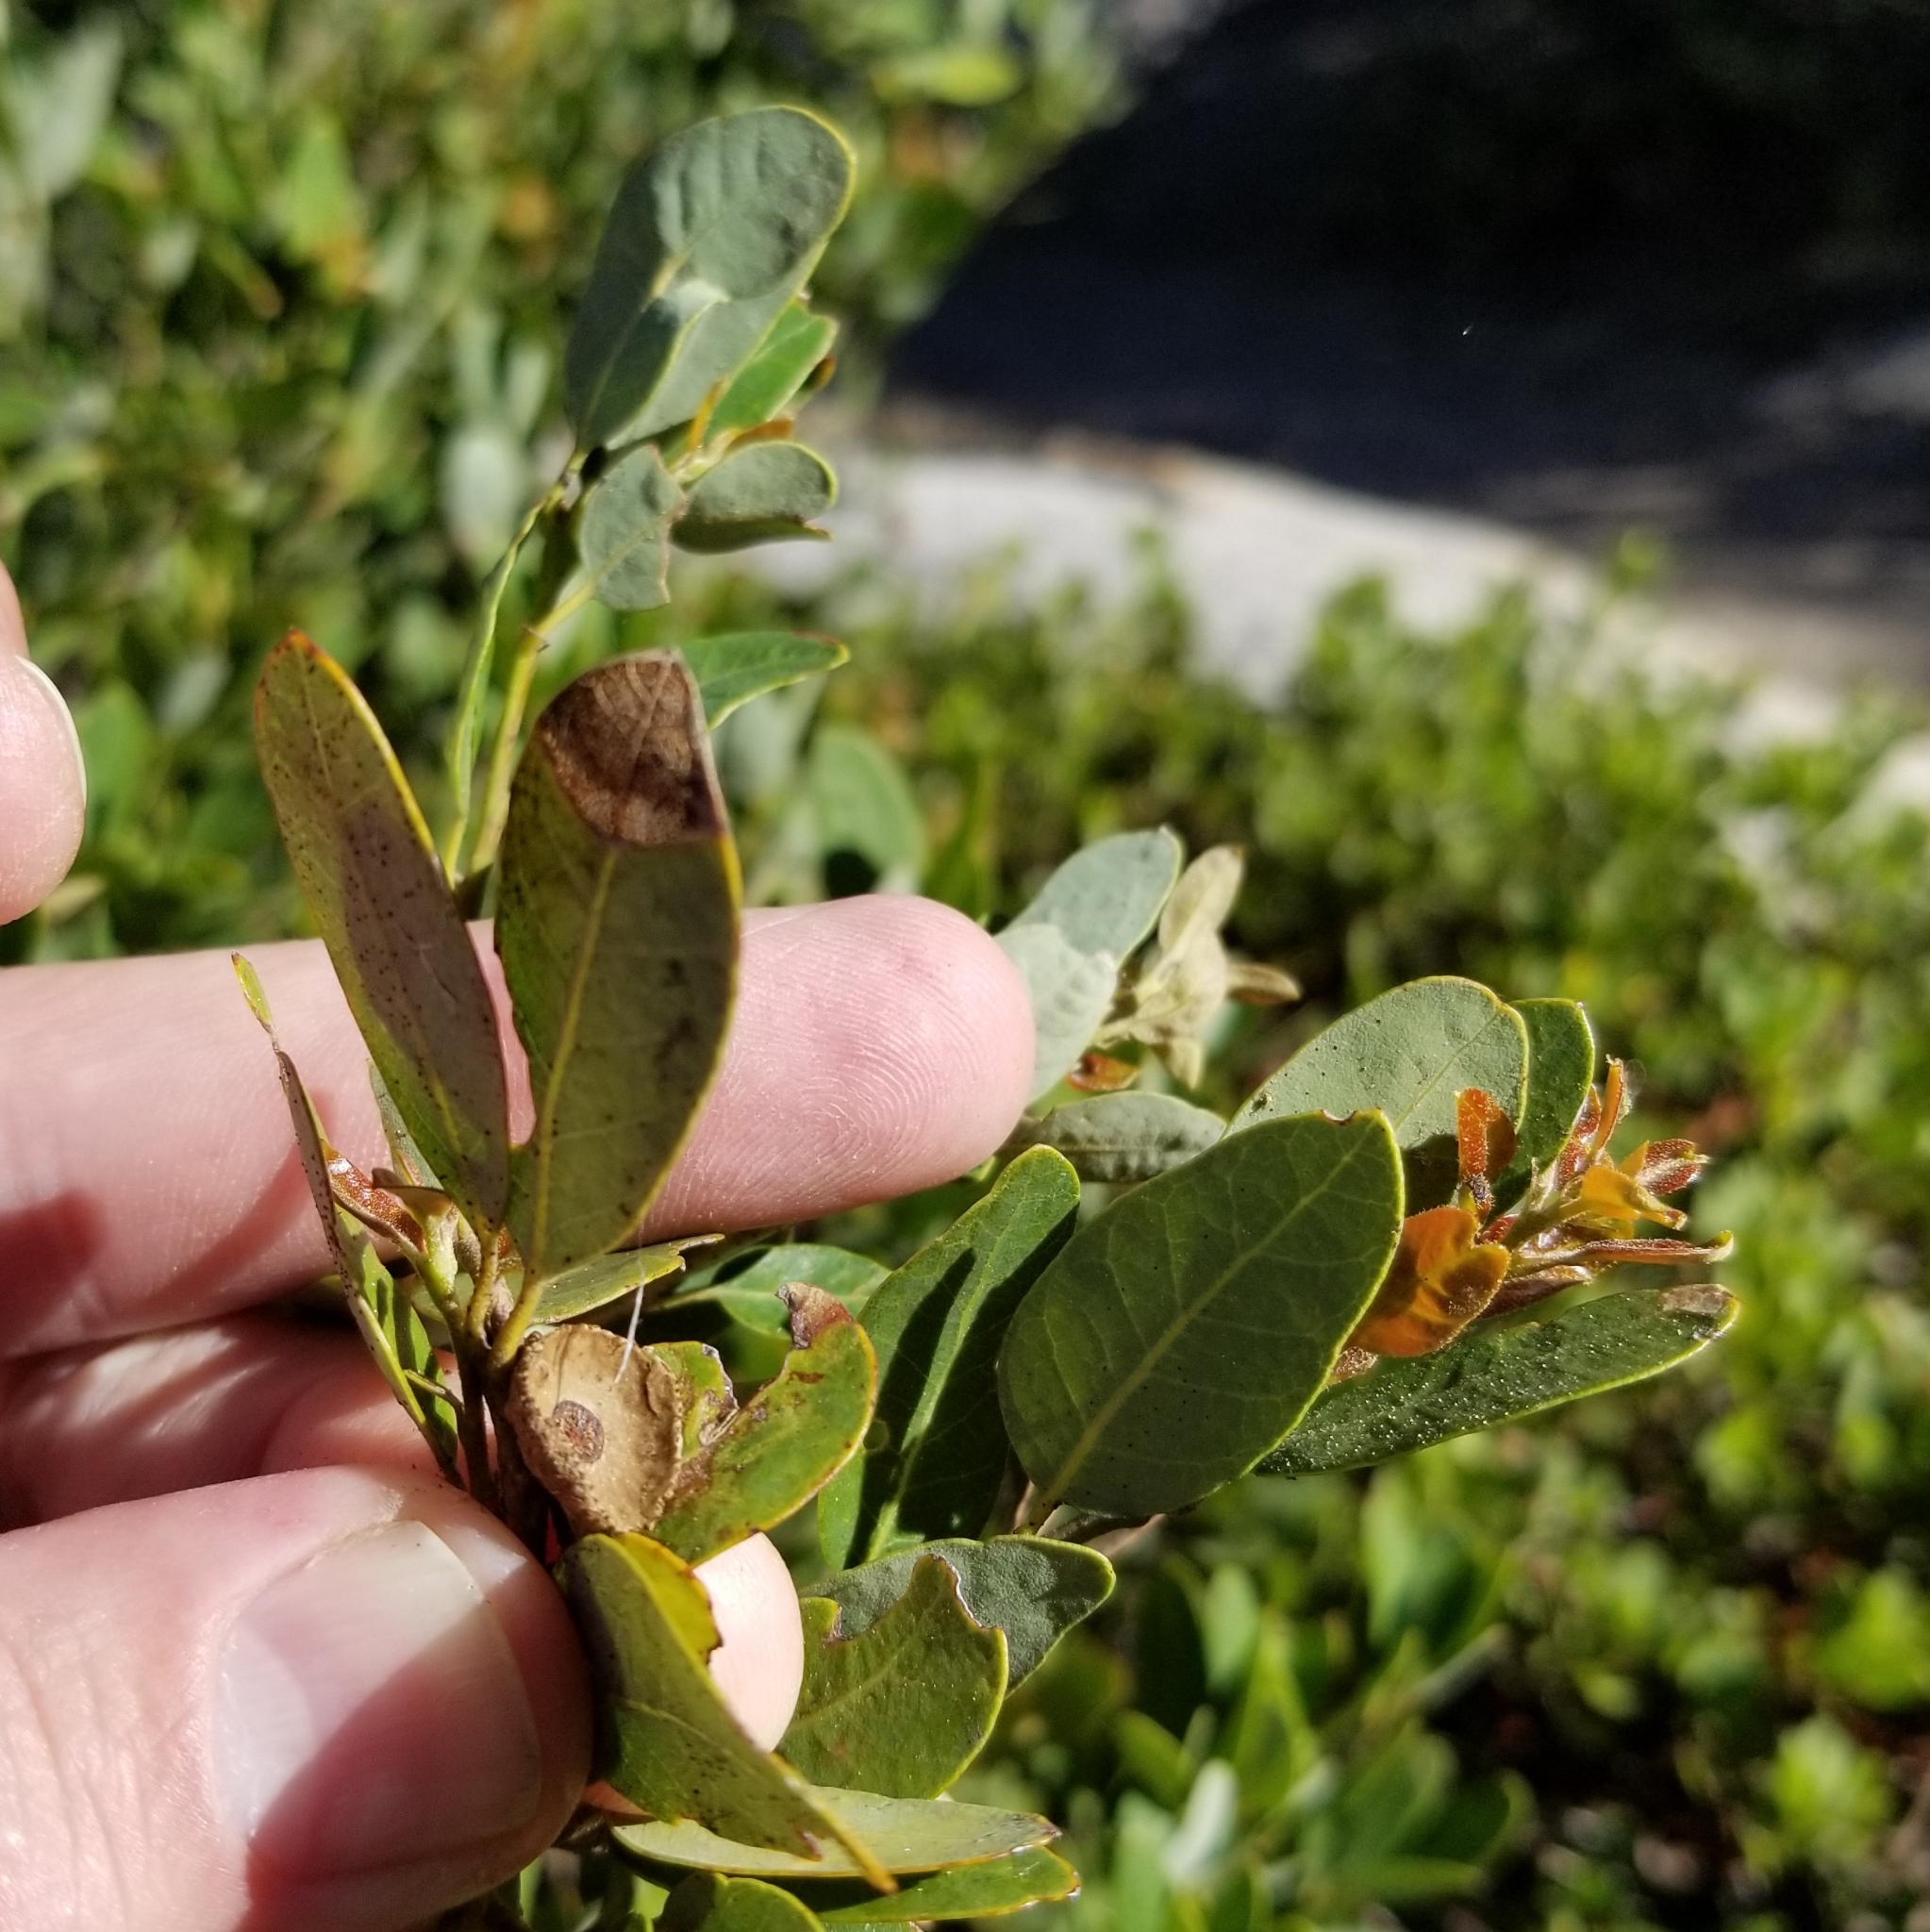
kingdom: Plantae
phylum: Tracheophyta
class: Magnoliopsida
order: Fagales
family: Fagaceae
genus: Quercus
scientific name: Quercus vacciniifolia
